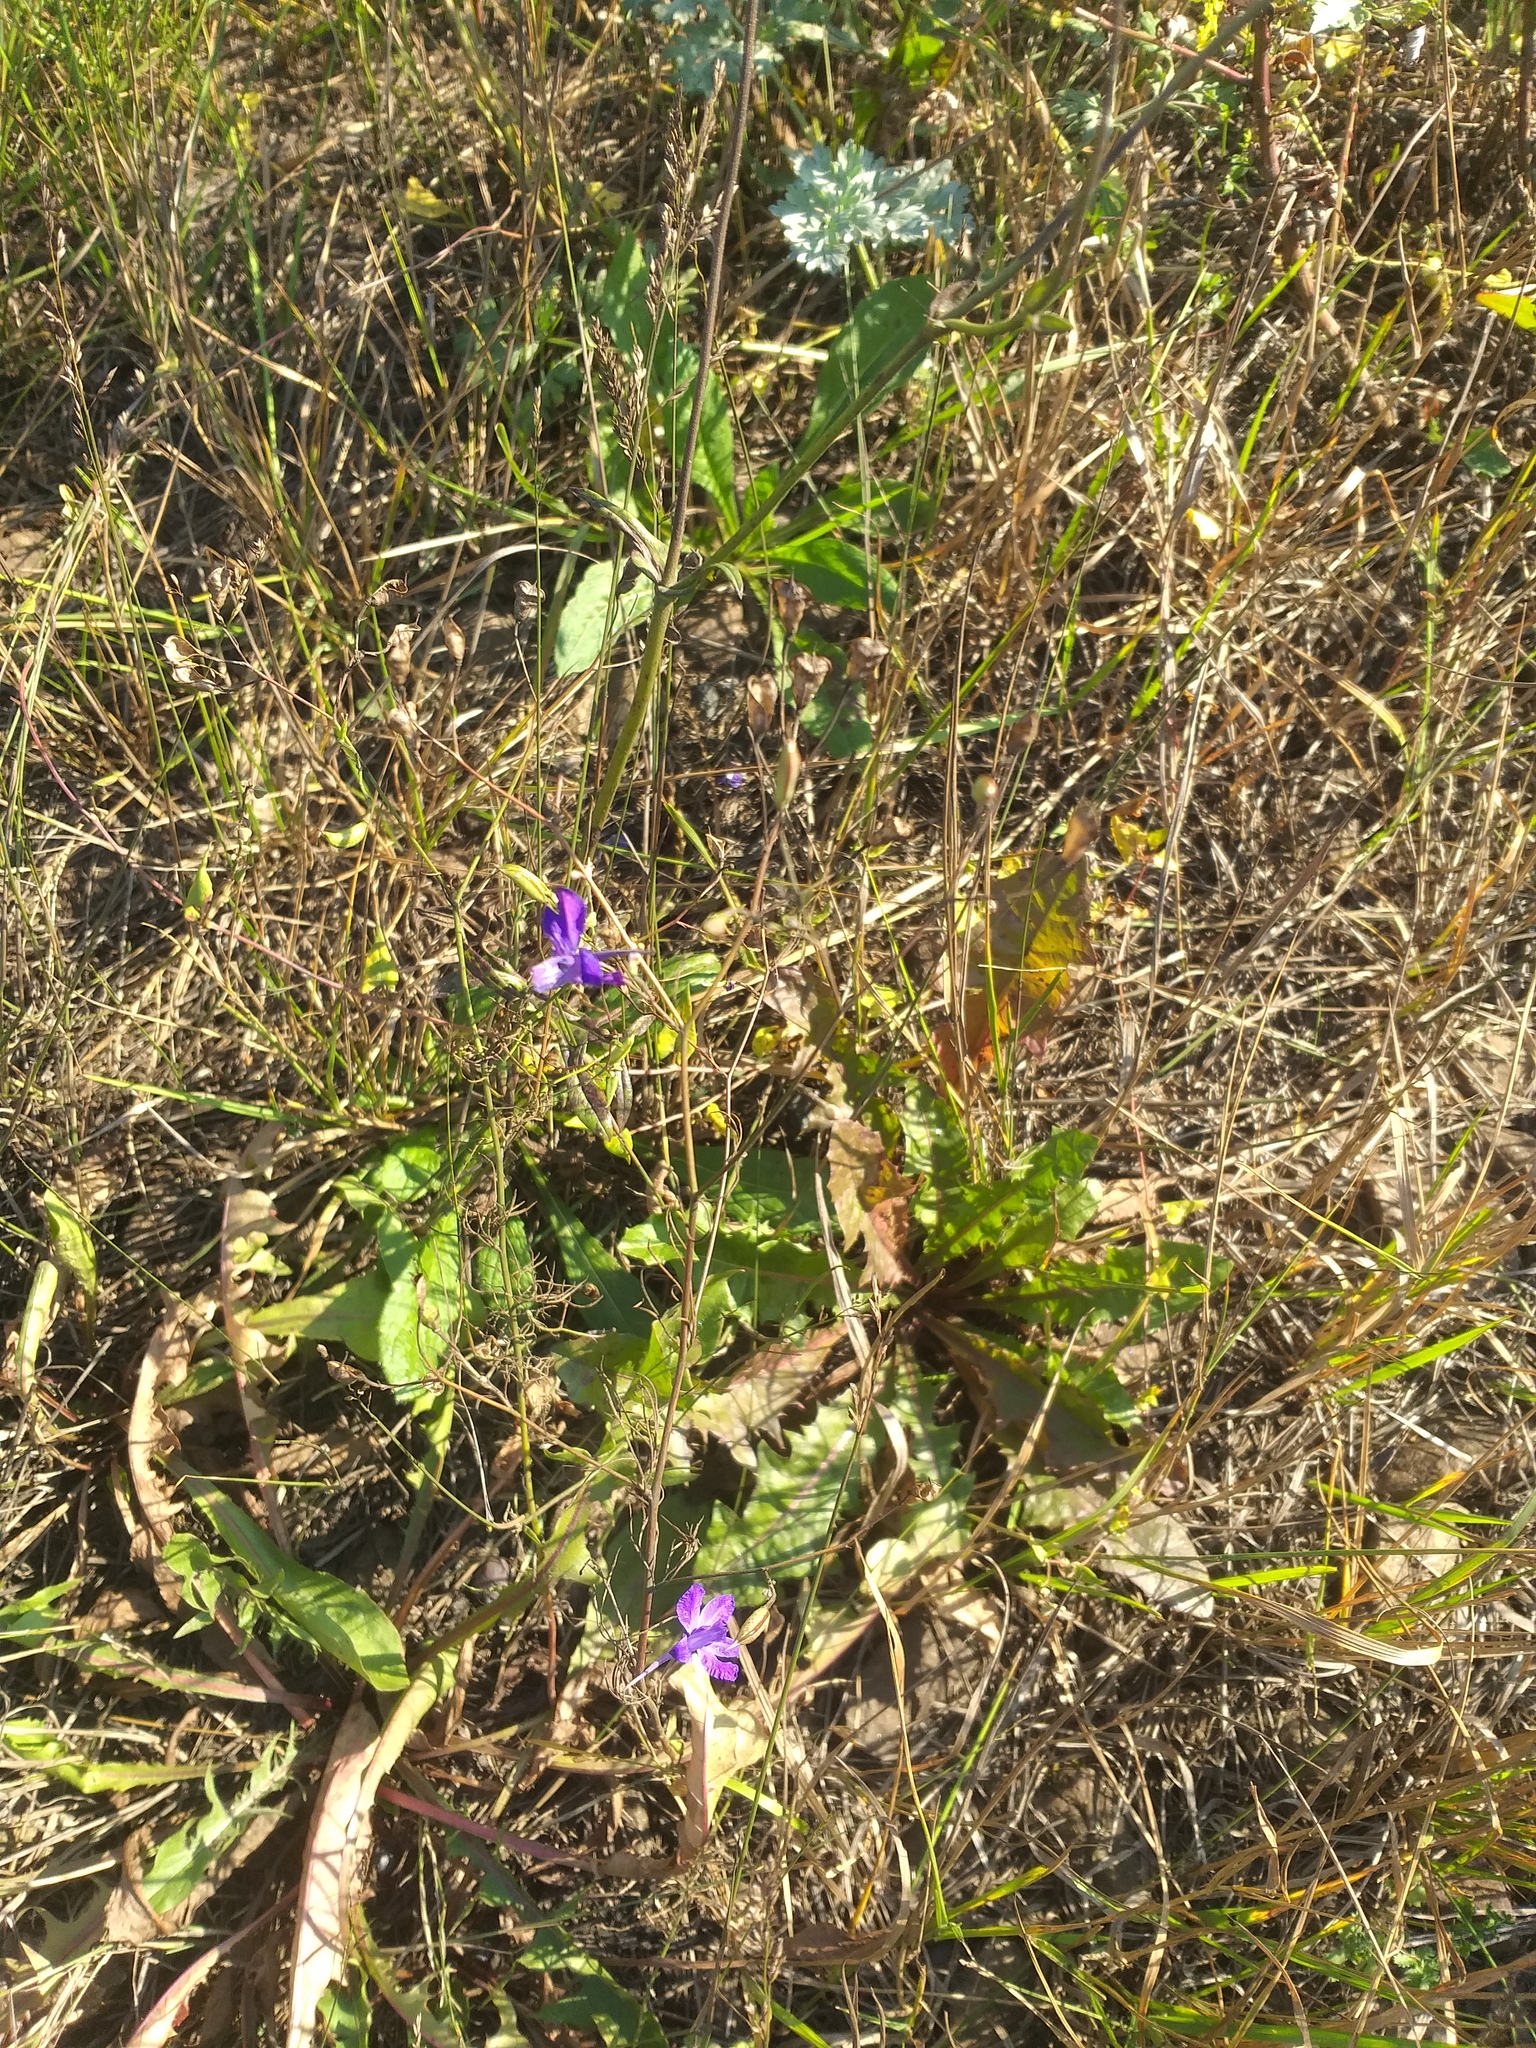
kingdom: Plantae
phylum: Tracheophyta
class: Magnoliopsida
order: Ranunculales
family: Ranunculaceae
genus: Delphinium
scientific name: Delphinium consolida
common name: Branching larkspur
